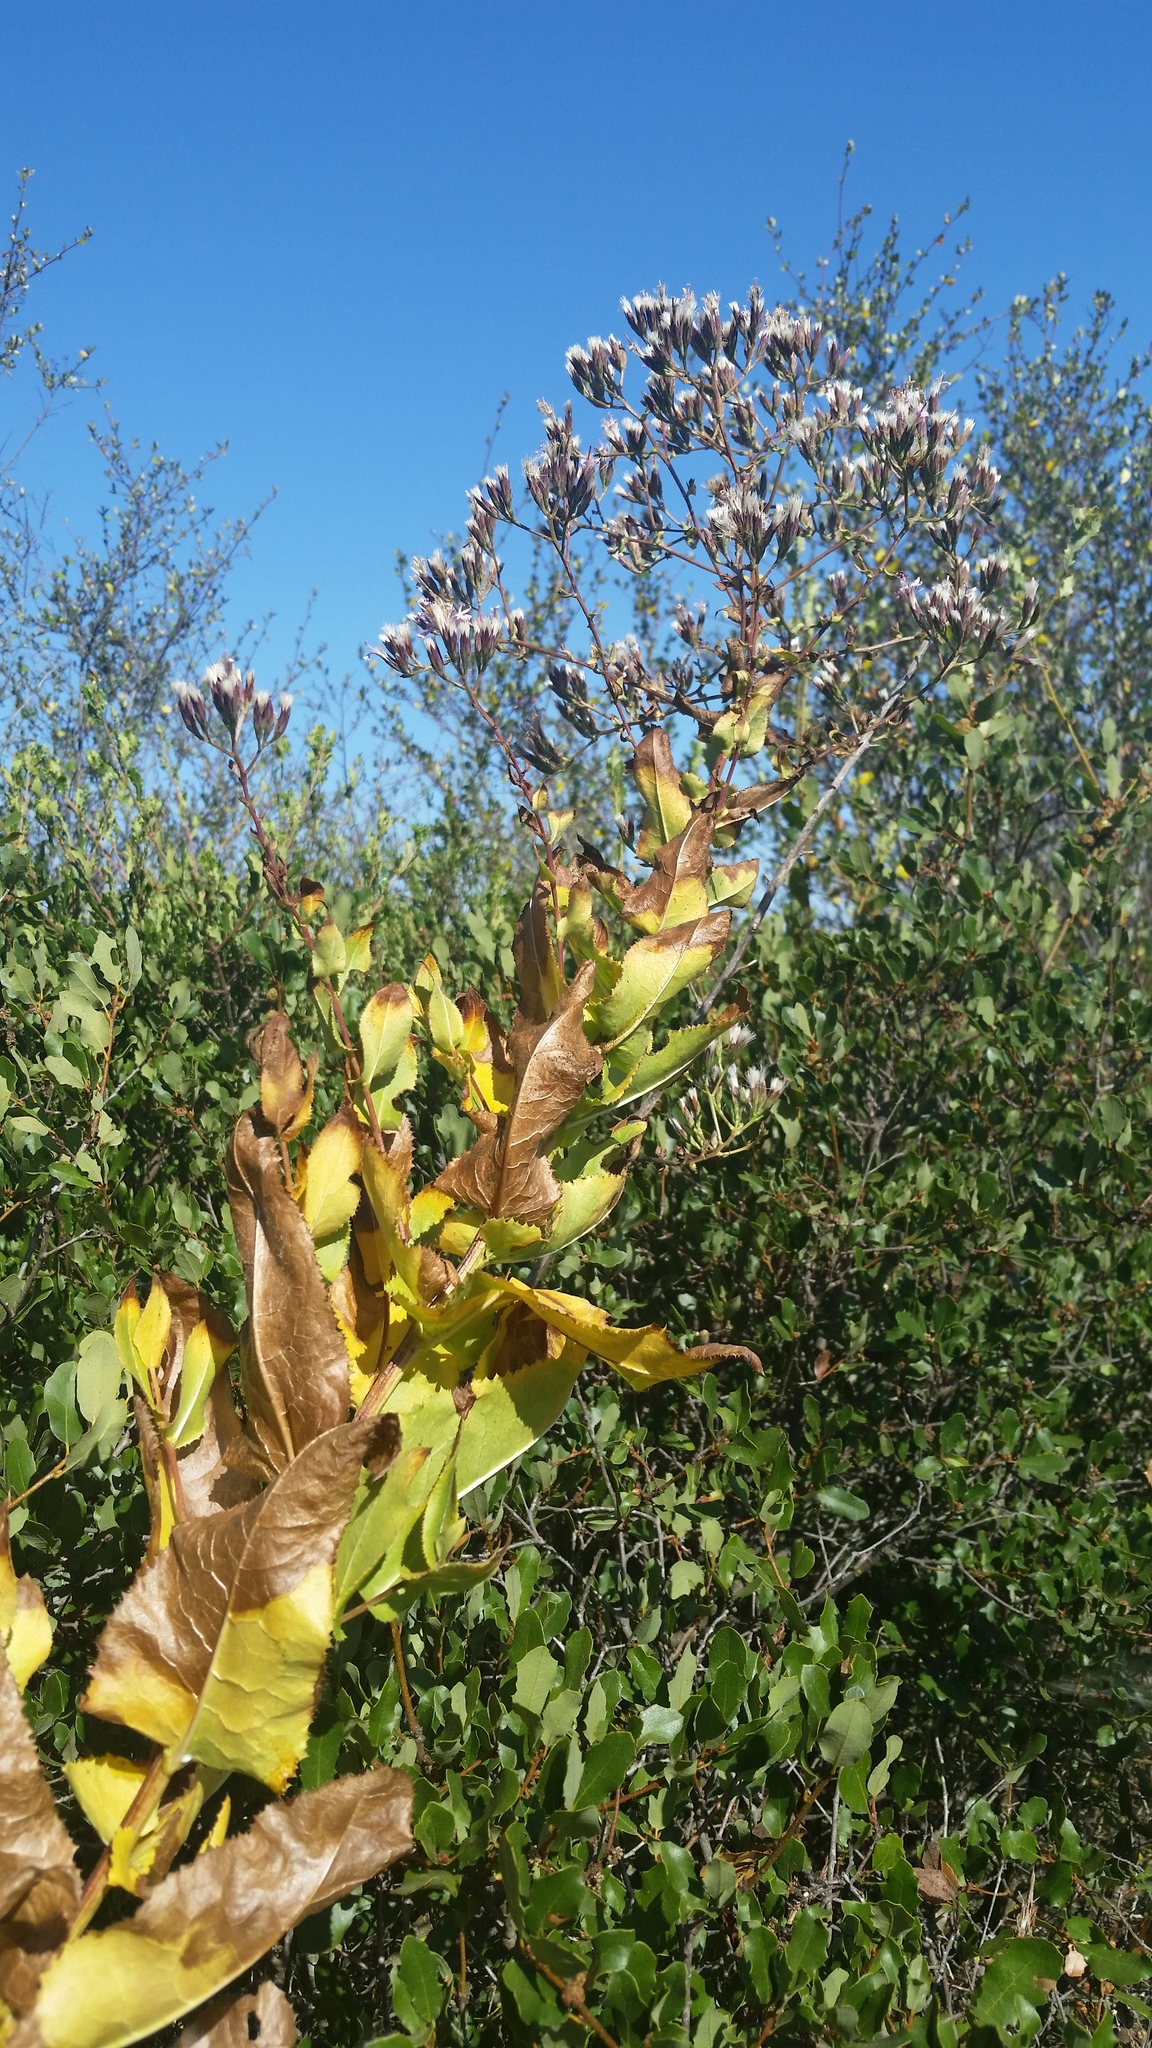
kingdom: Plantae
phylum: Tracheophyta
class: Magnoliopsida
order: Asterales
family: Asteraceae
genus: Acourtia
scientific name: Acourtia microcephala
